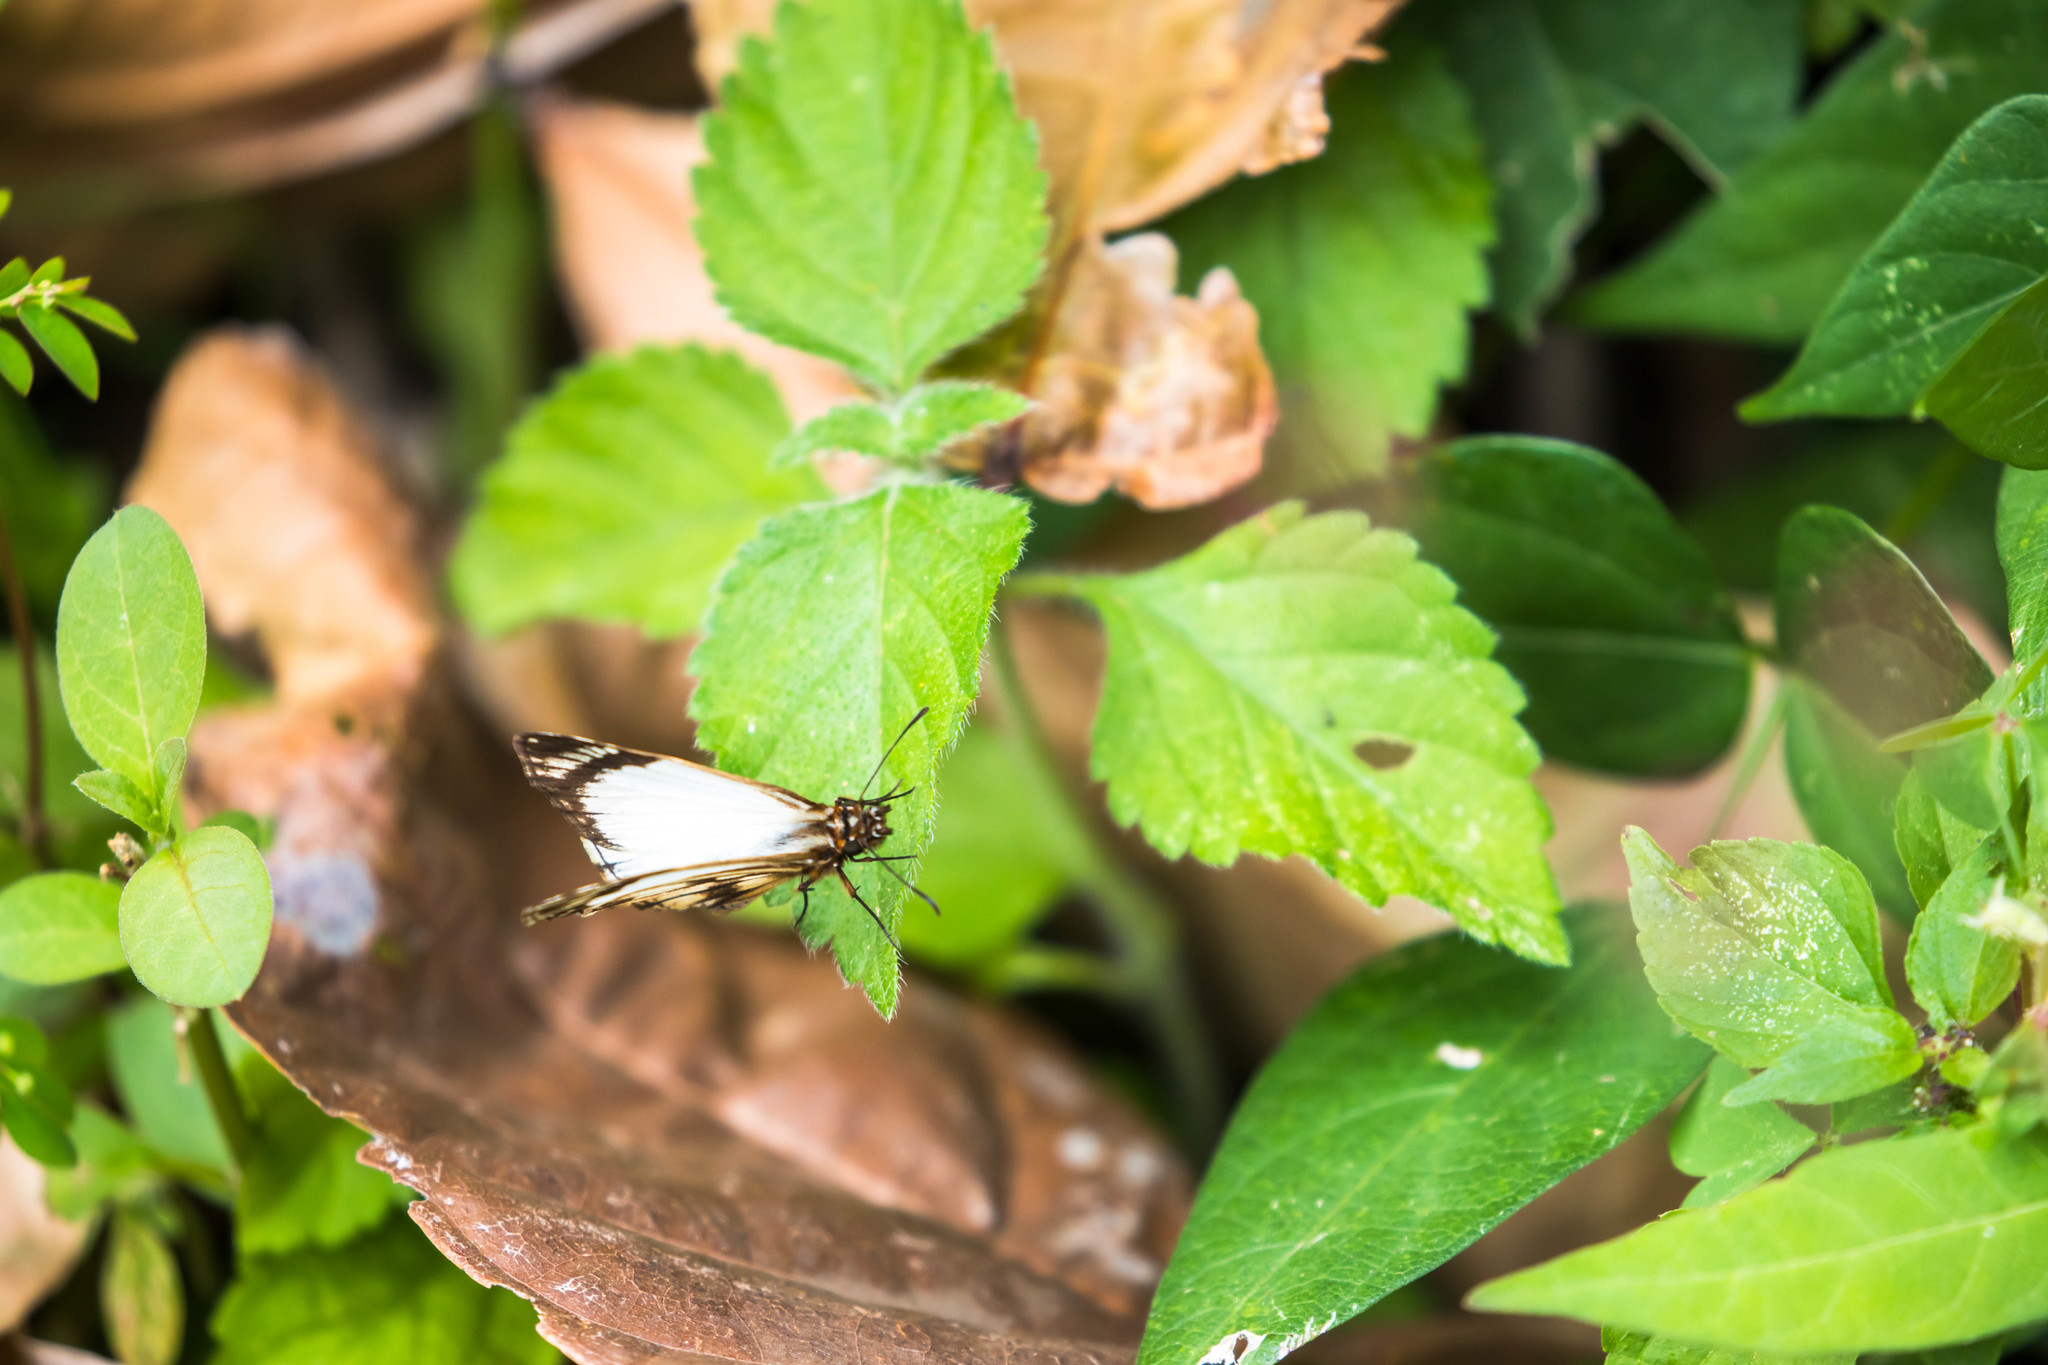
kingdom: Animalia
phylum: Arthropoda
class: Insecta
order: Lepidoptera
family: Hesperiidae
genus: Heliopetes
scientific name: Heliopetes alana
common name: Alana white-skipper
